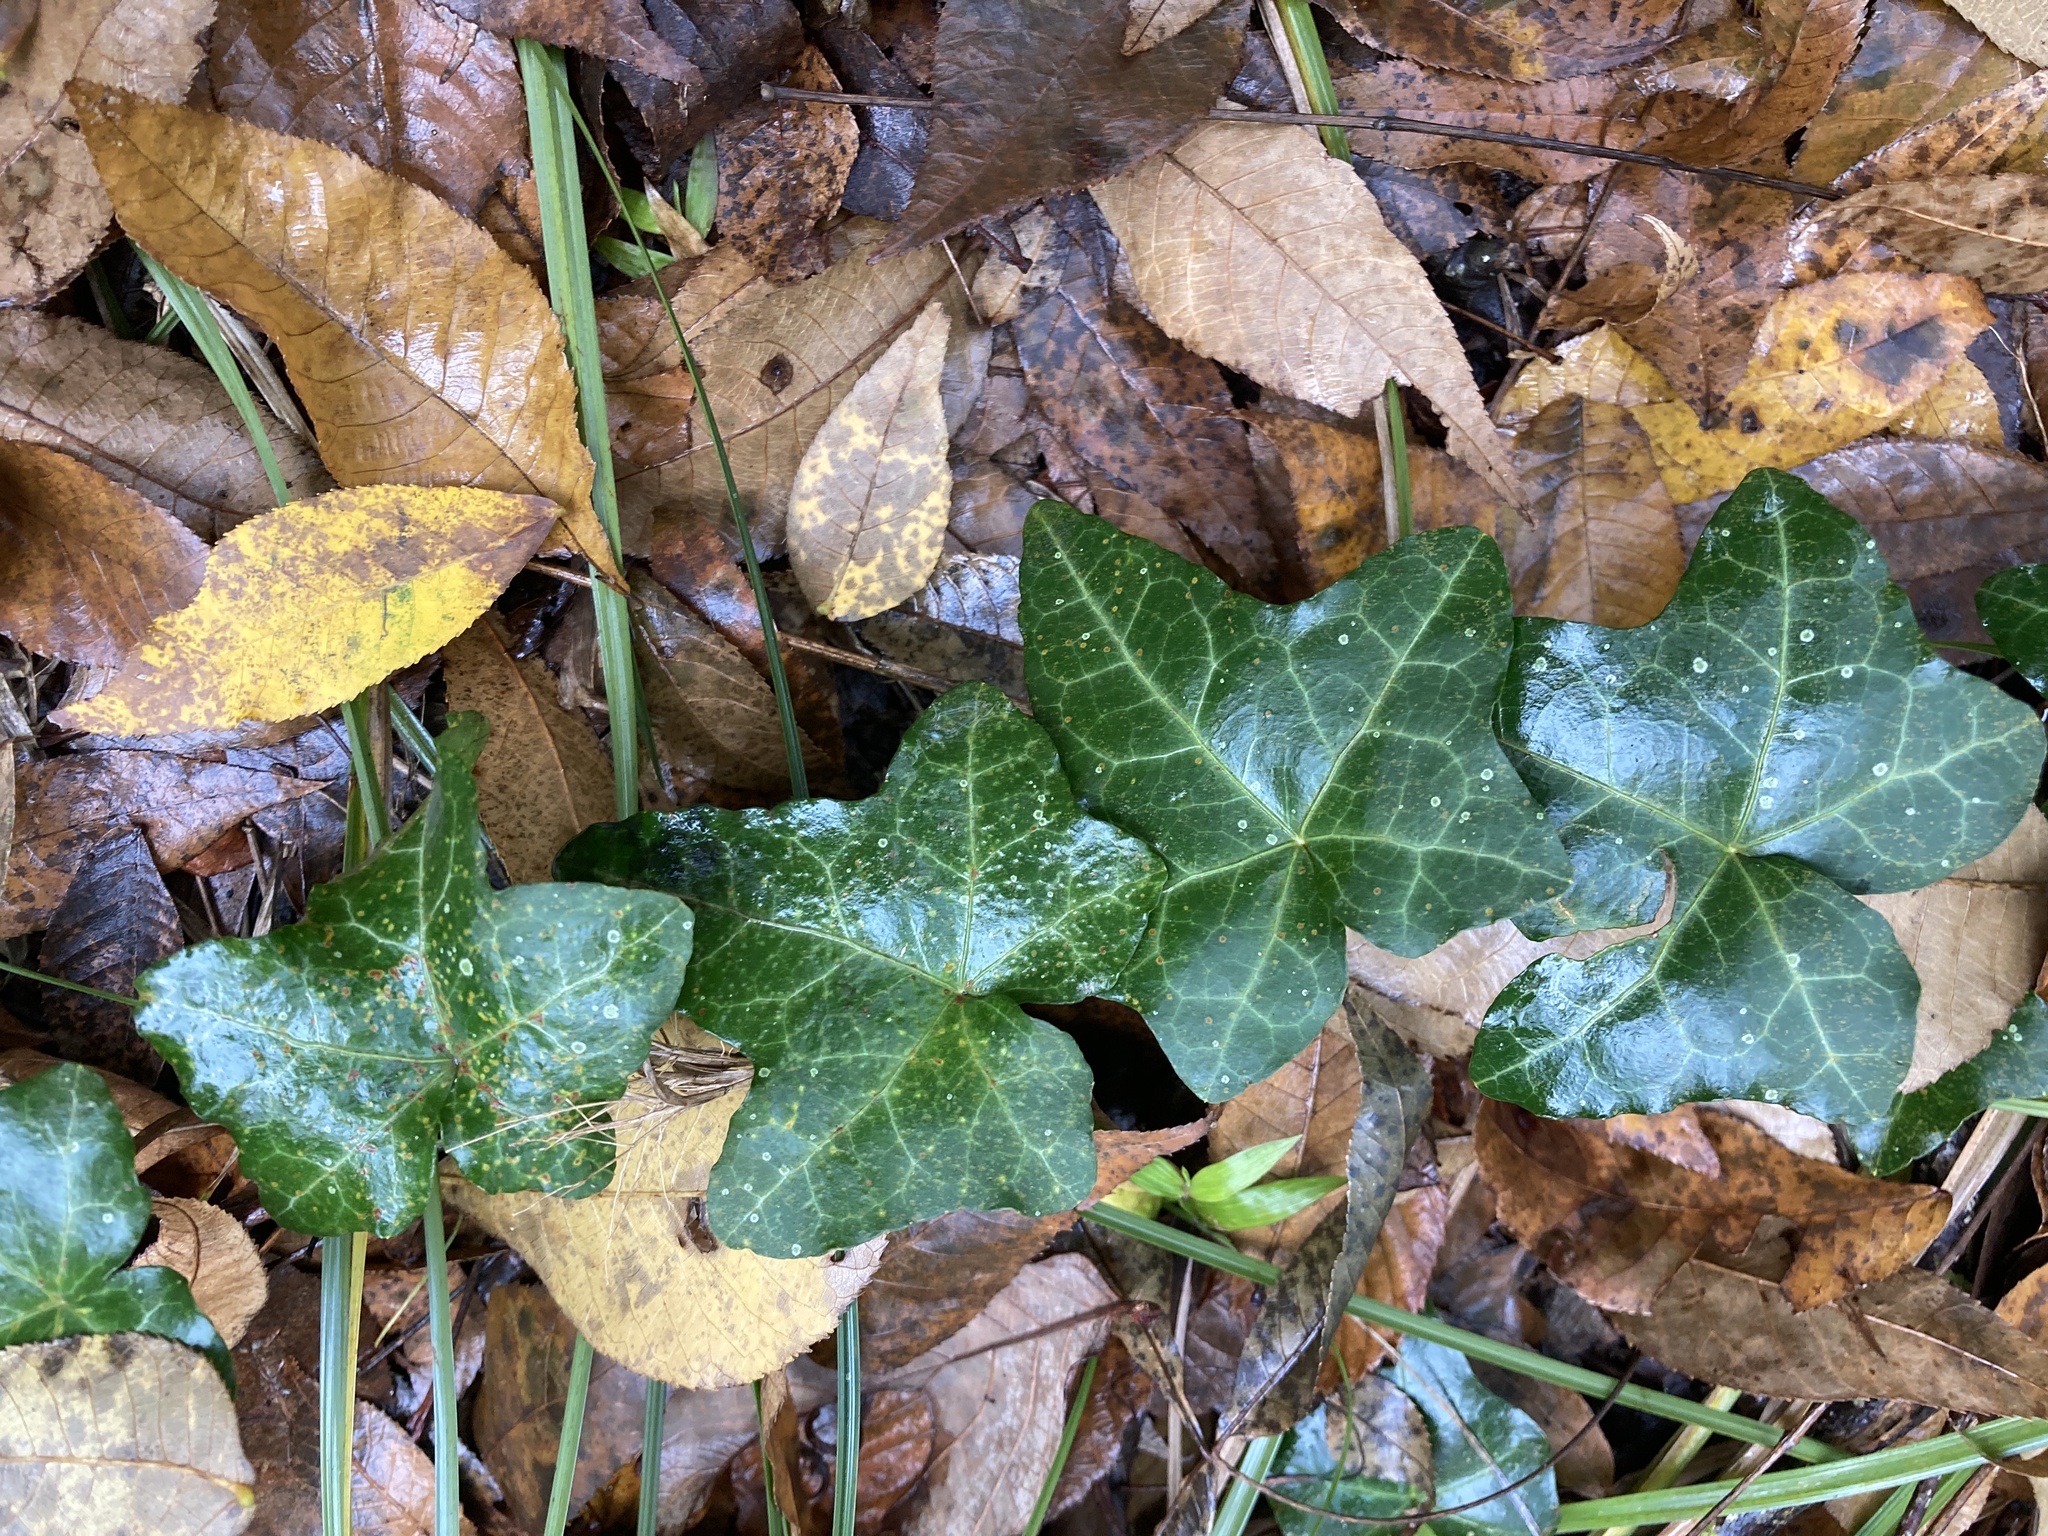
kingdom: Plantae
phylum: Tracheophyta
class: Magnoliopsida
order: Apiales
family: Araliaceae
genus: Hedera
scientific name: Hedera helix
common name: Ivy
